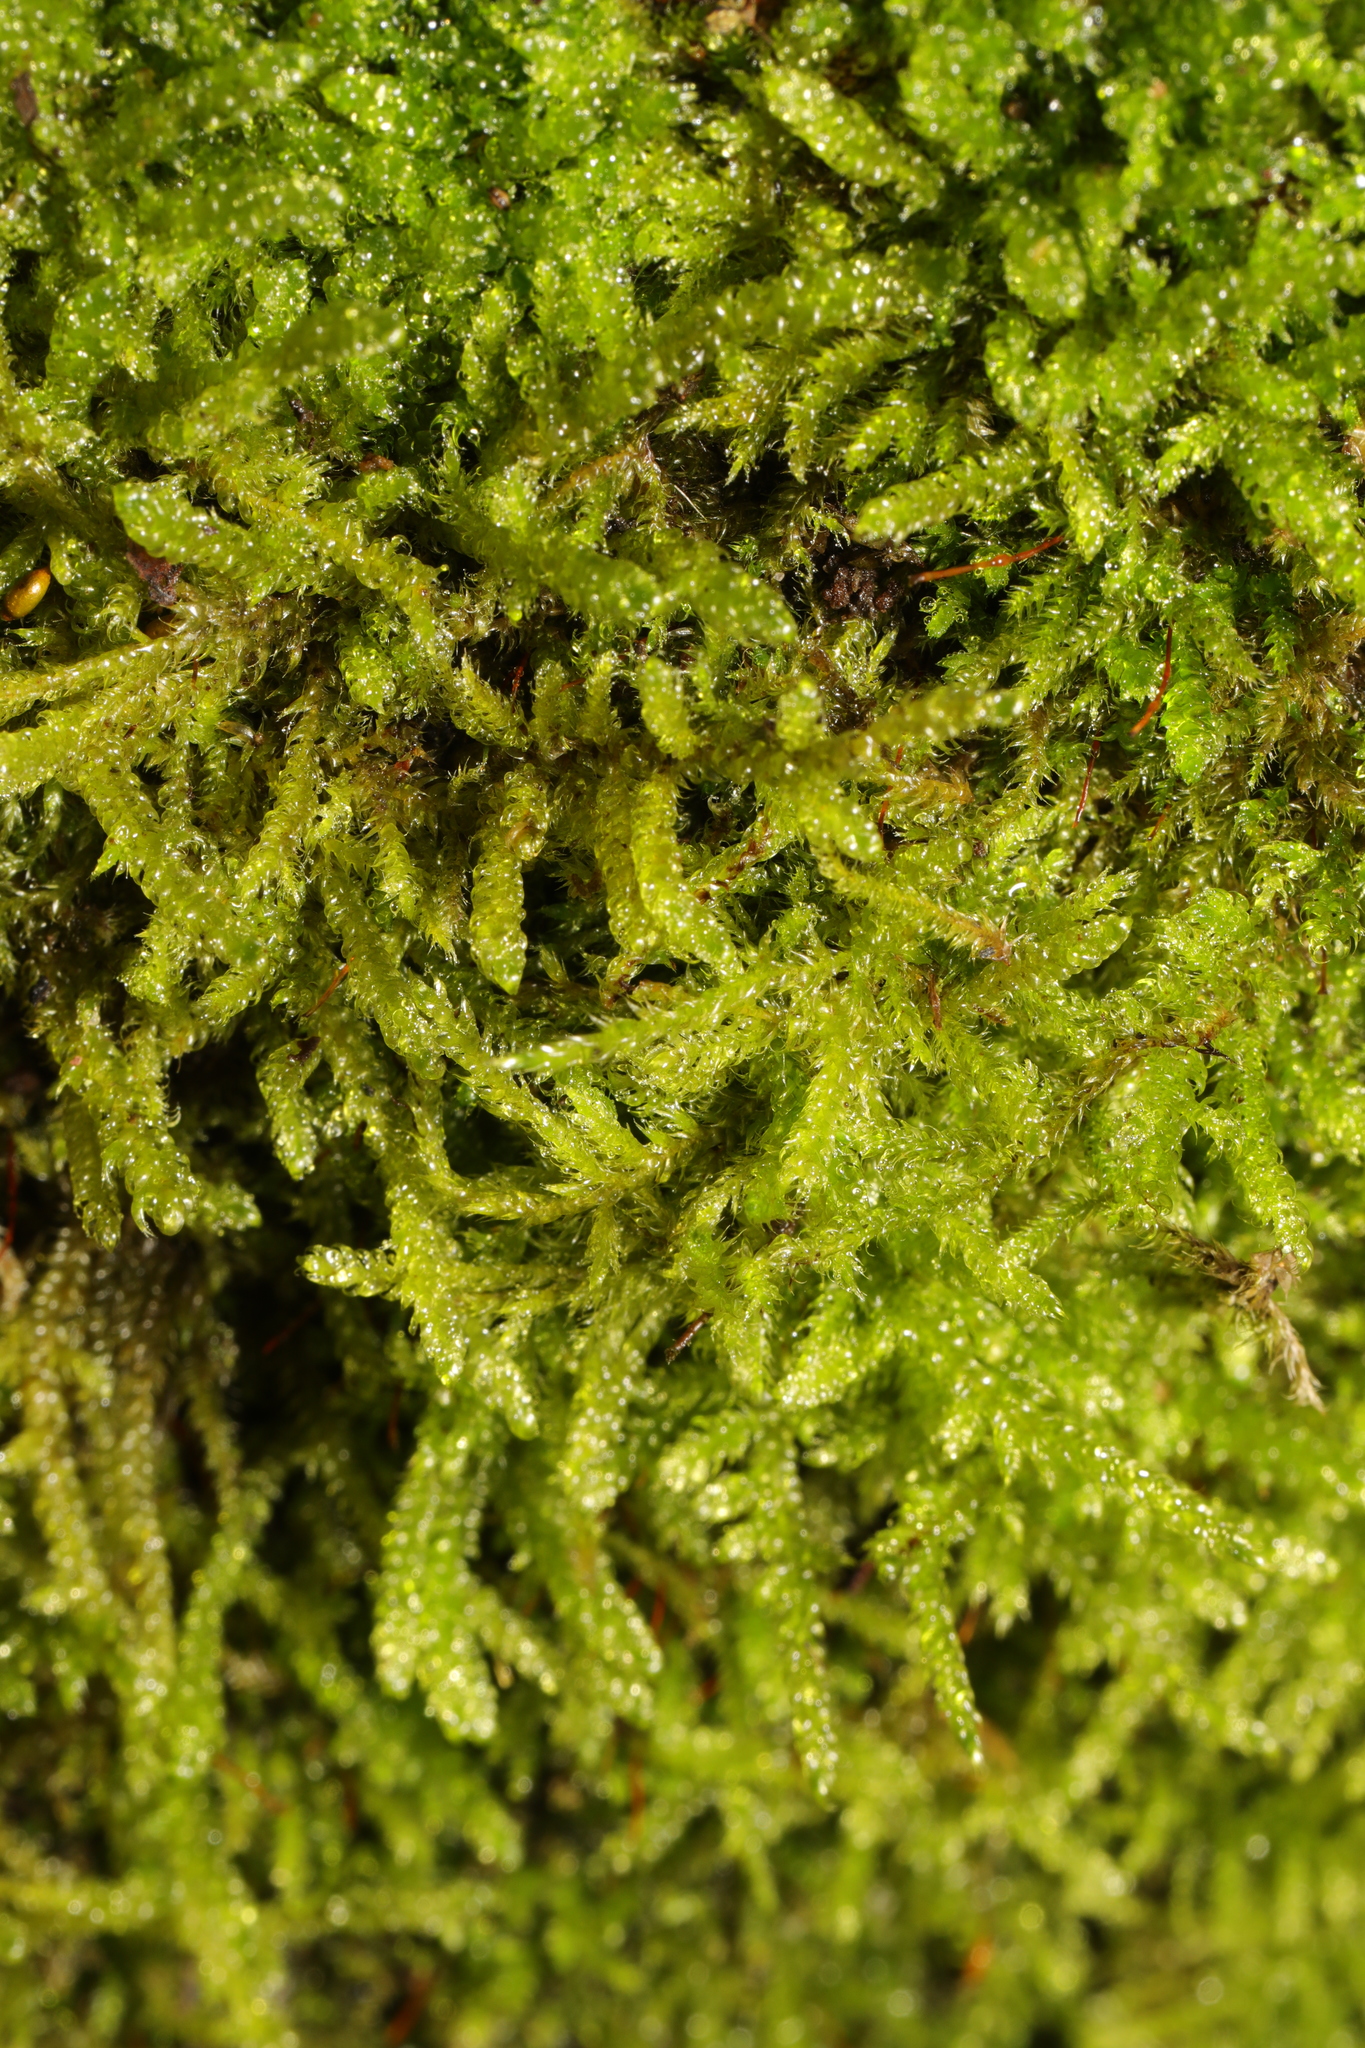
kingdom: Plantae
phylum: Bryophyta
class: Bryopsida
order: Hypnales
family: Hypnaceae
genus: Hypnum
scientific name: Hypnum cupressiforme
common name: Cypress-leaved plait-moss
